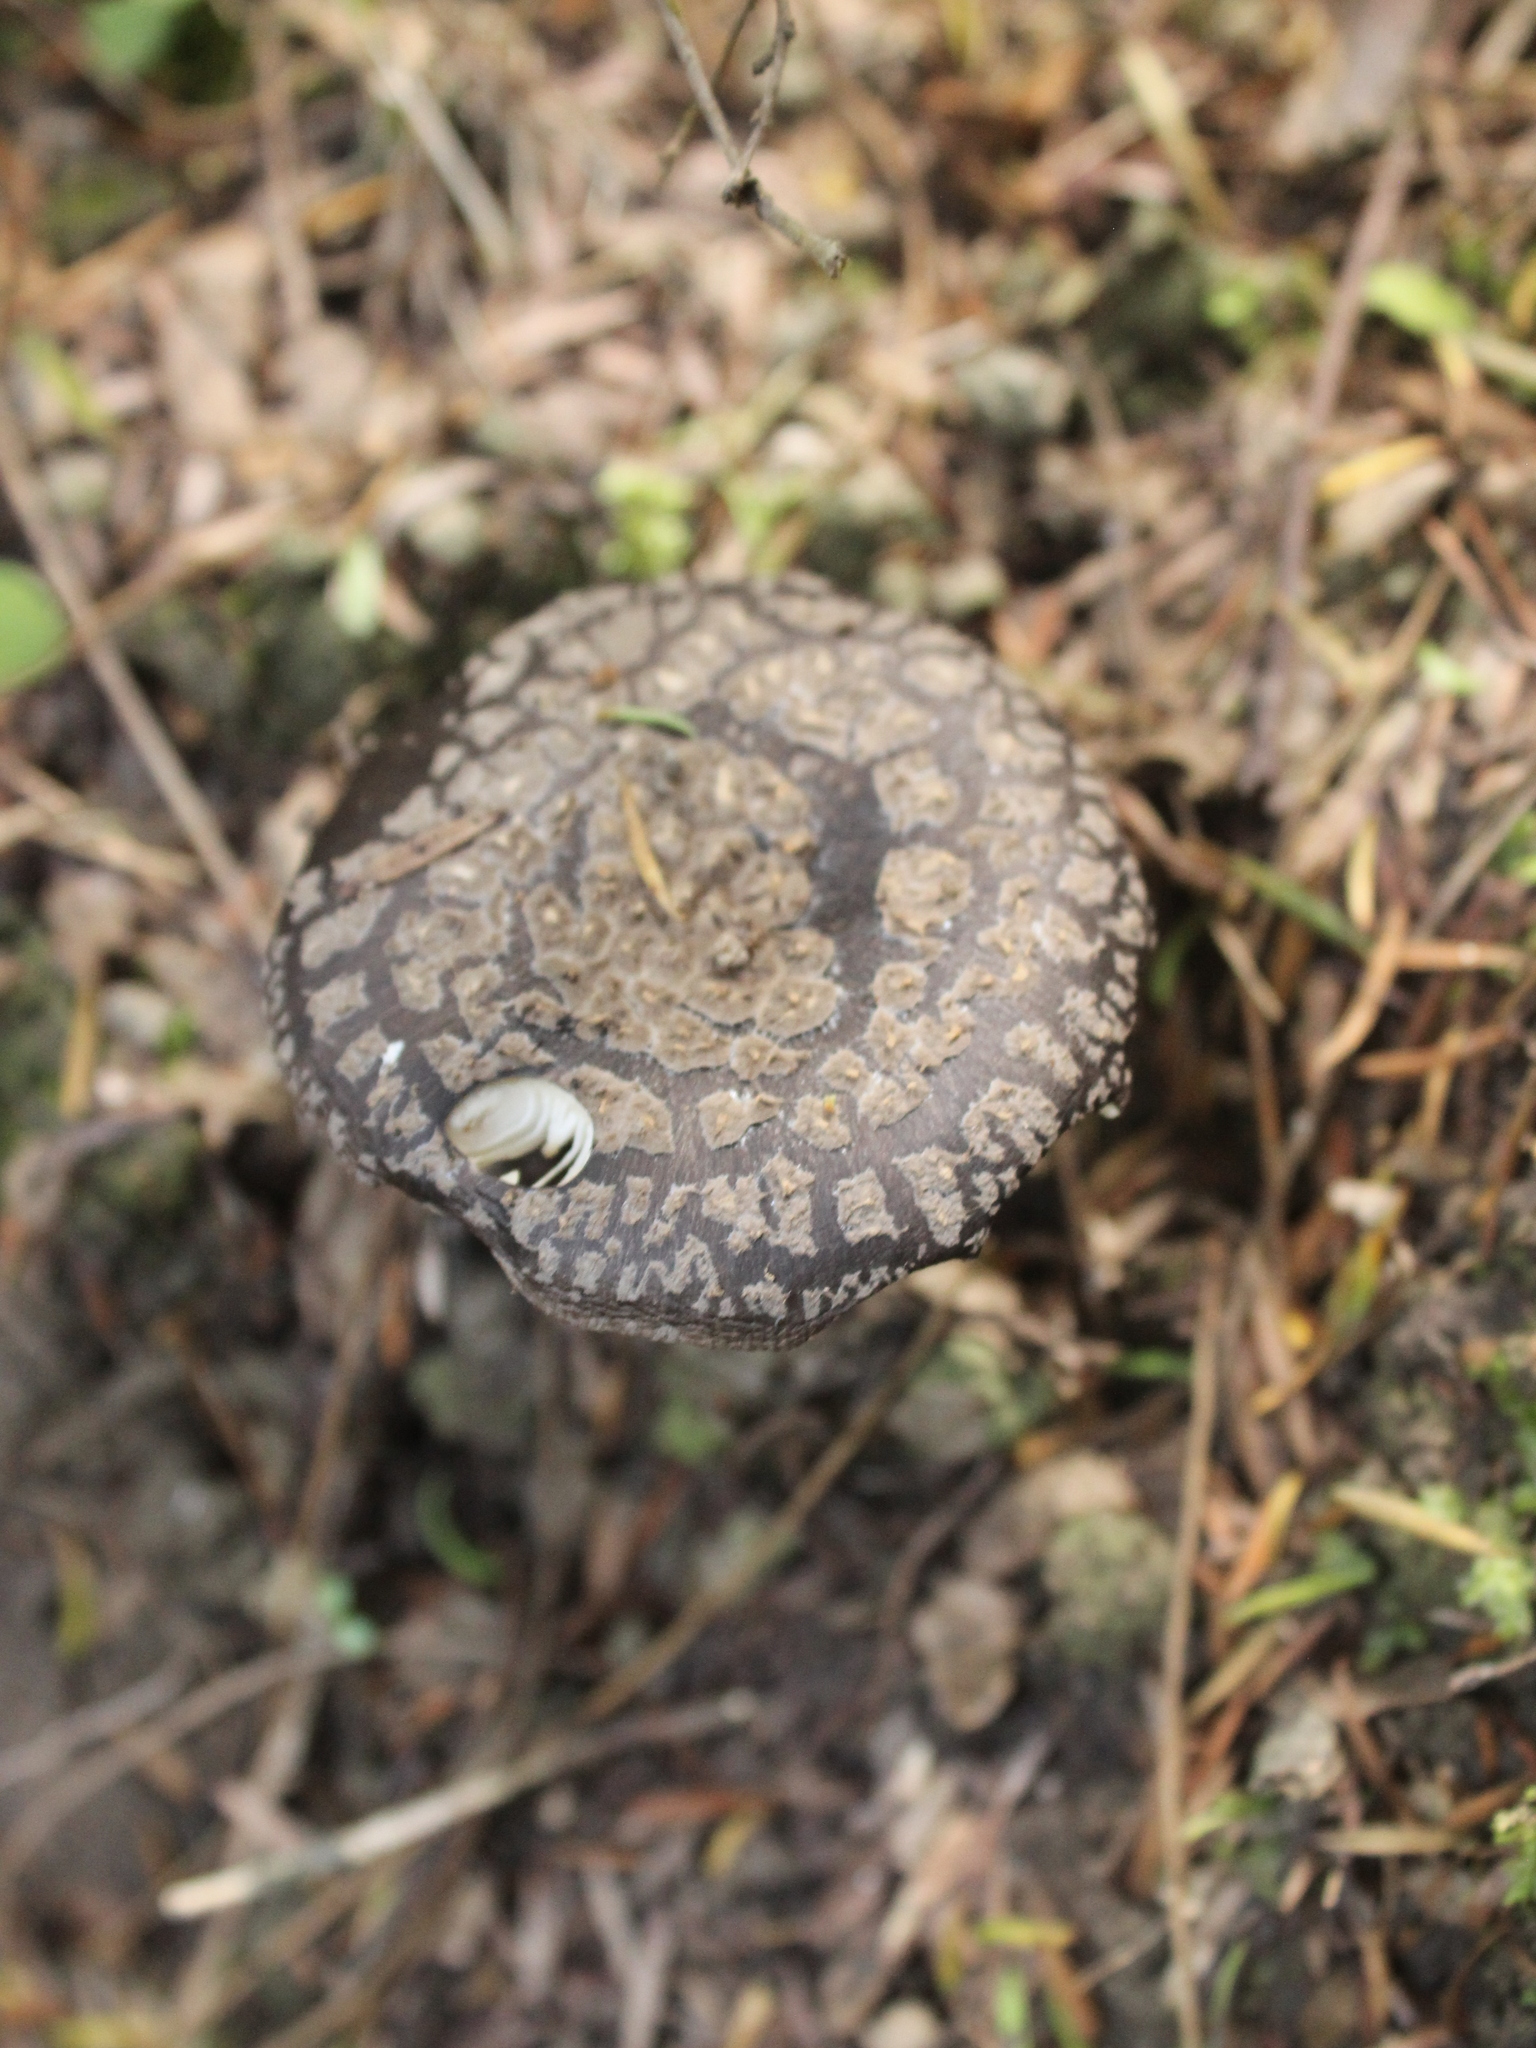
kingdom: Fungi
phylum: Basidiomycota
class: Agaricomycetes
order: Agaricales
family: Amanitaceae
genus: Amanita
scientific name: Amanita nothofagi
